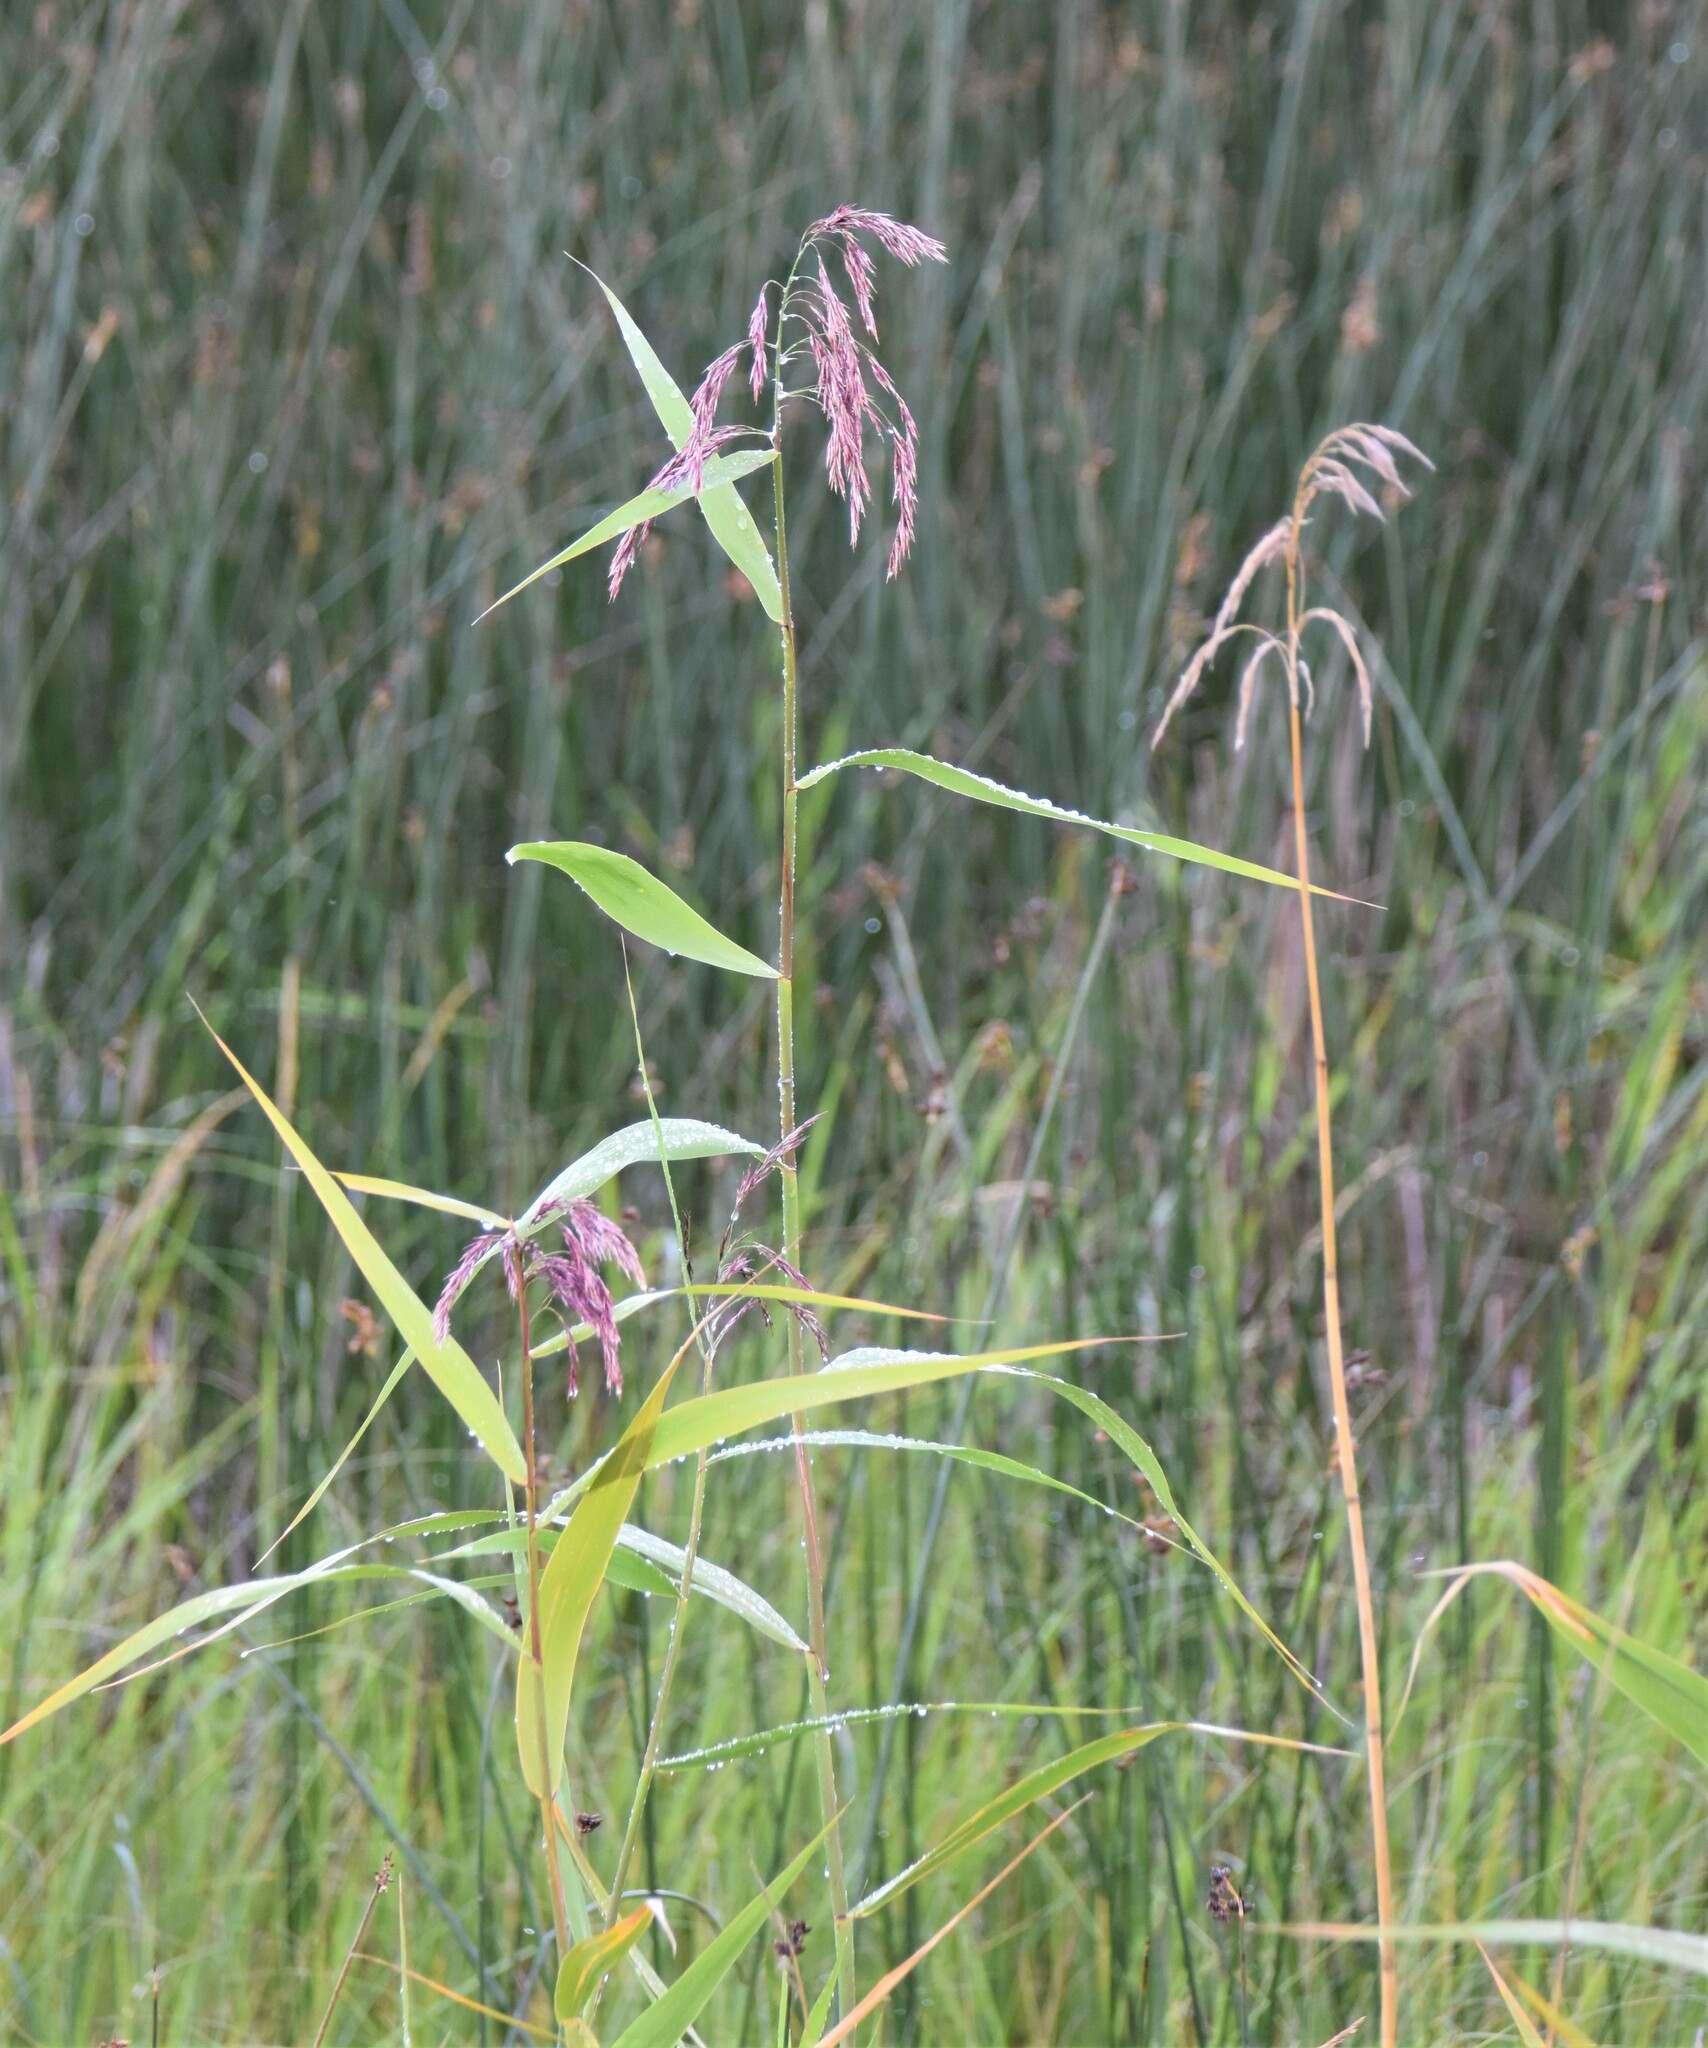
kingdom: Plantae
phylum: Tracheophyta
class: Liliopsida
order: Poales
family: Poaceae
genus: Phragmites
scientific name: Phragmites australis
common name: Common reed
